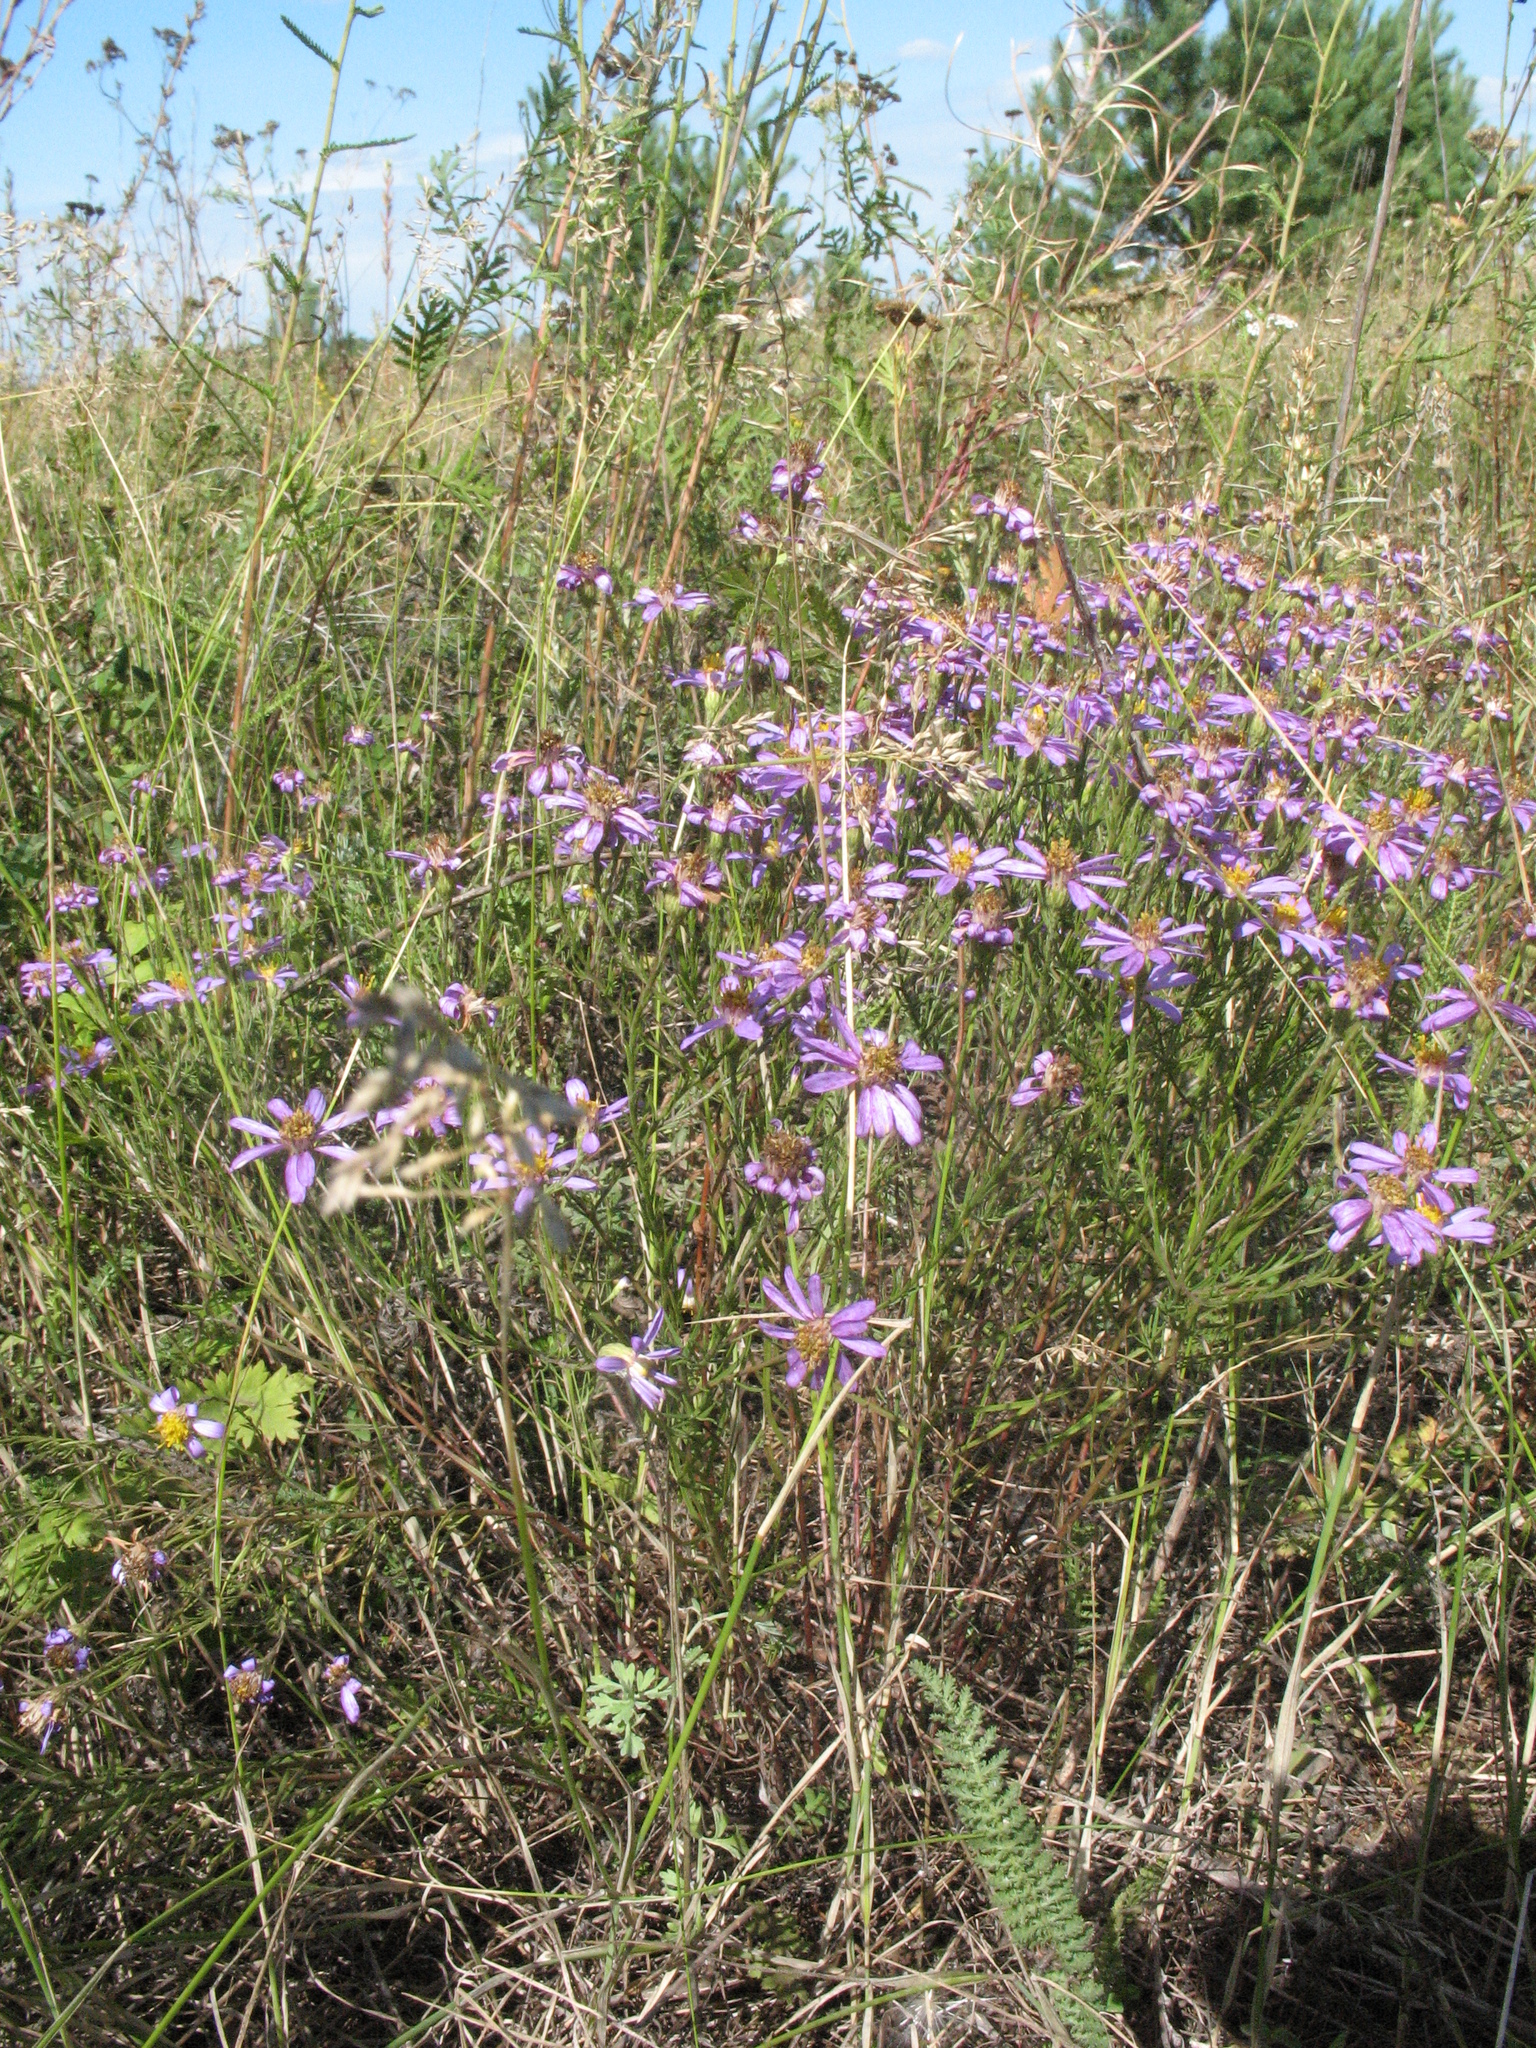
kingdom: Plantae
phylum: Tracheophyta
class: Magnoliopsida
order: Asterales
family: Asteraceae
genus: Galatella
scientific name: Galatella angustissima
